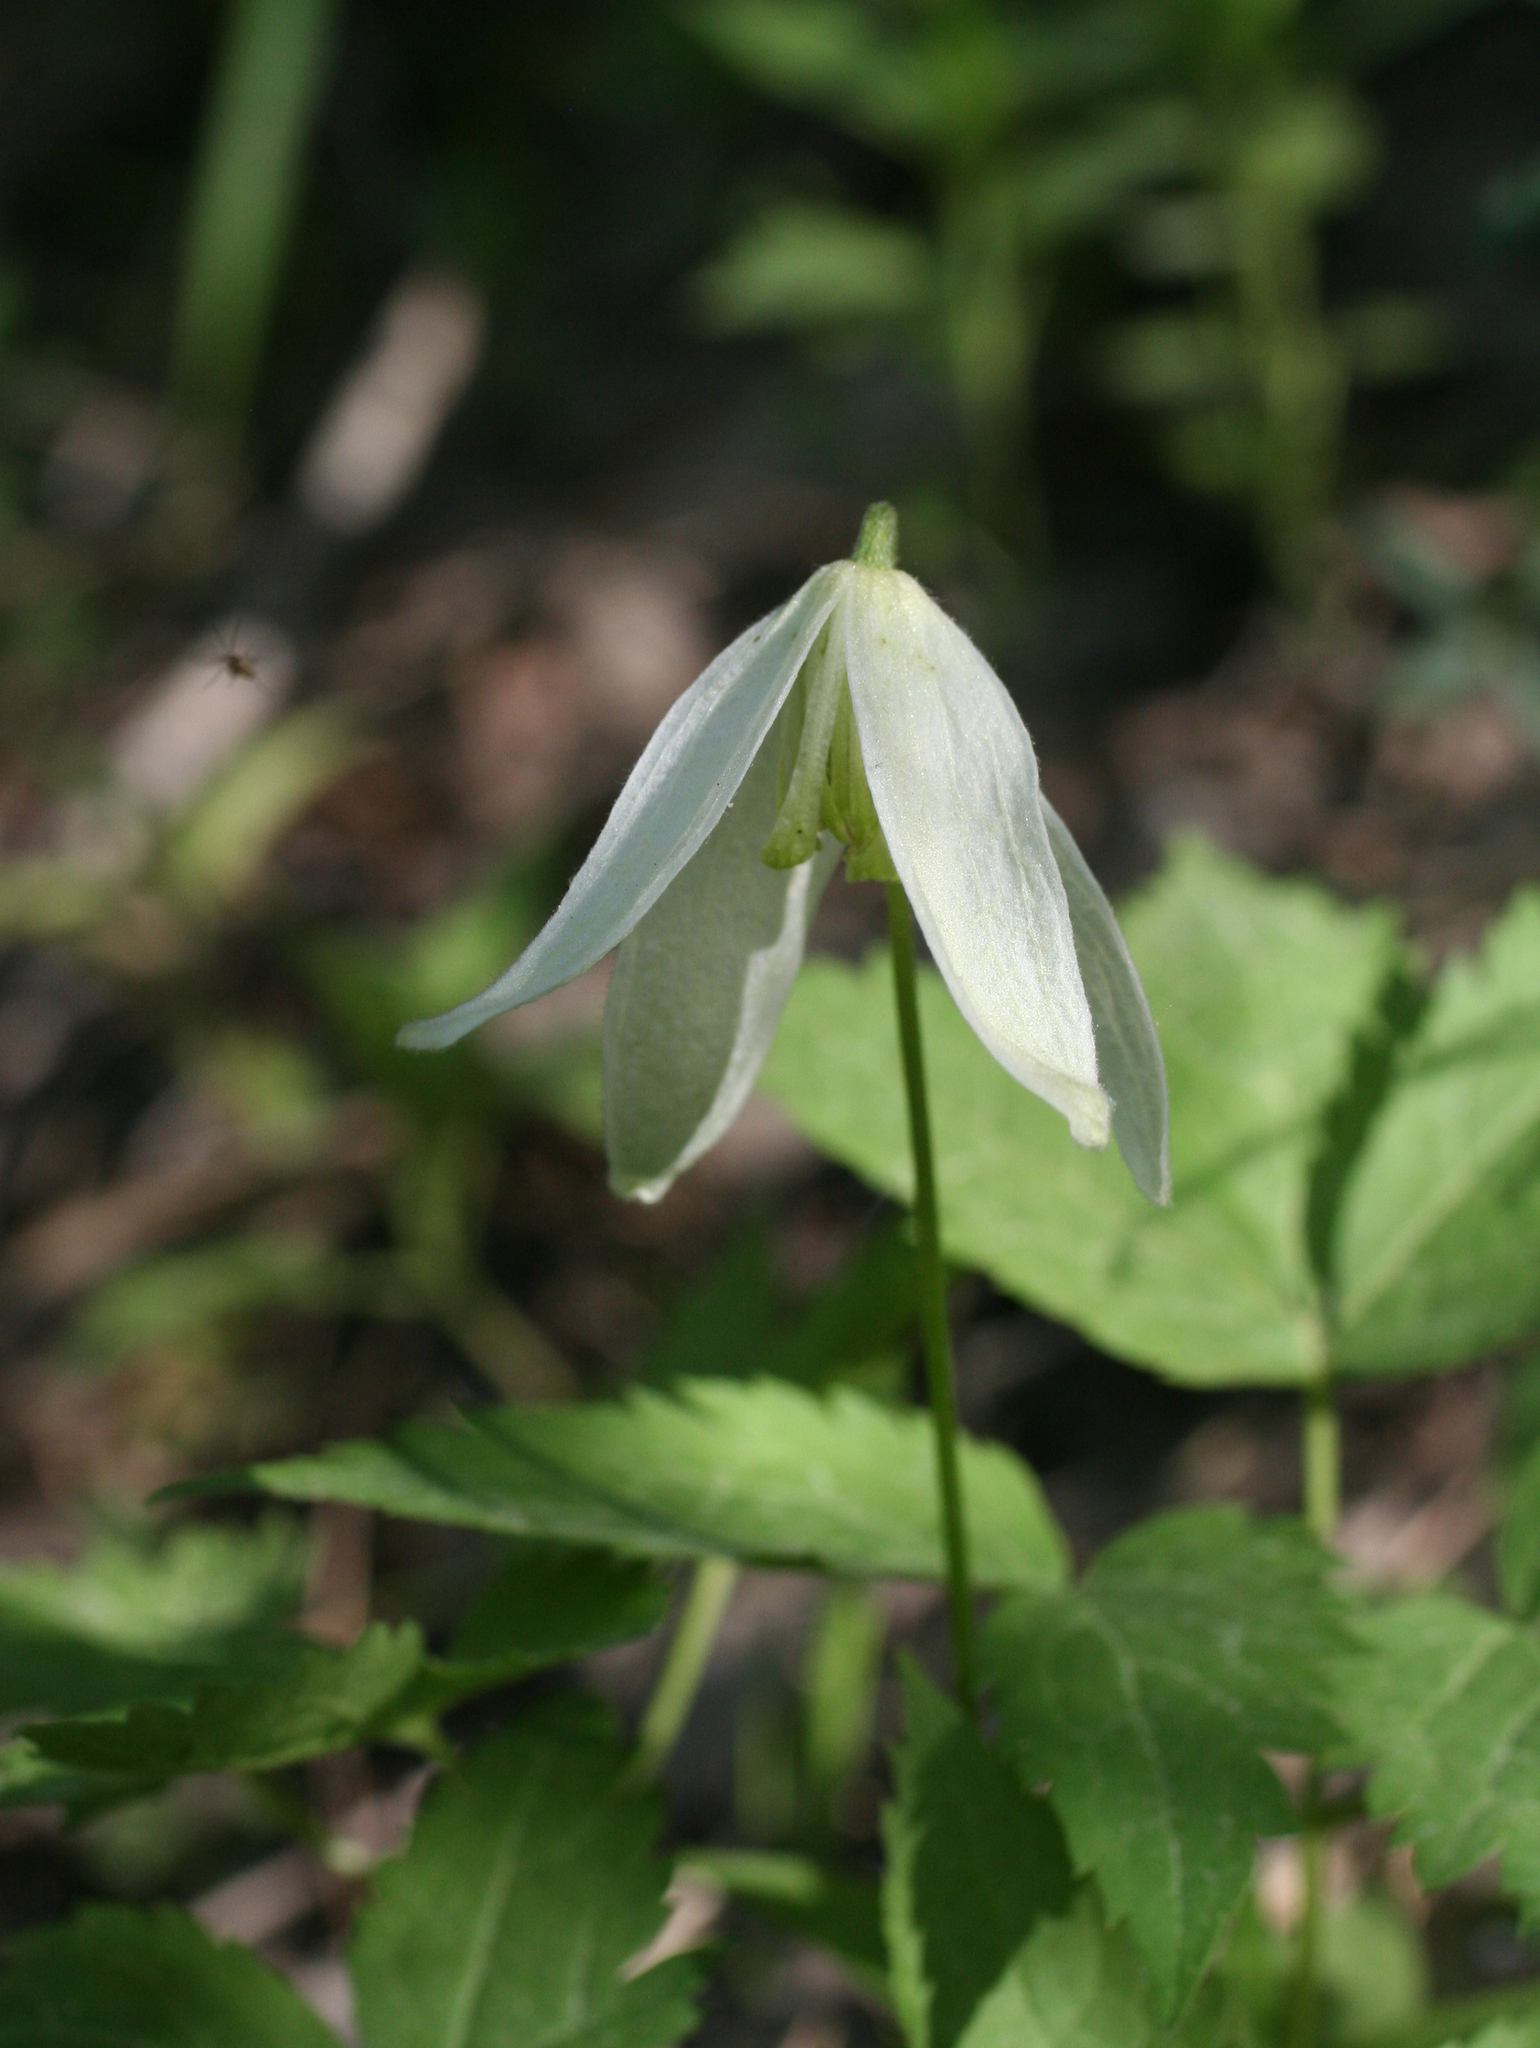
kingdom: Plantae
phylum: Tracheophyta
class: Magnoliopsida
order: Ranunculales
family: Ranunculaceae
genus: Clematis
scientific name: Clematis sibirica
